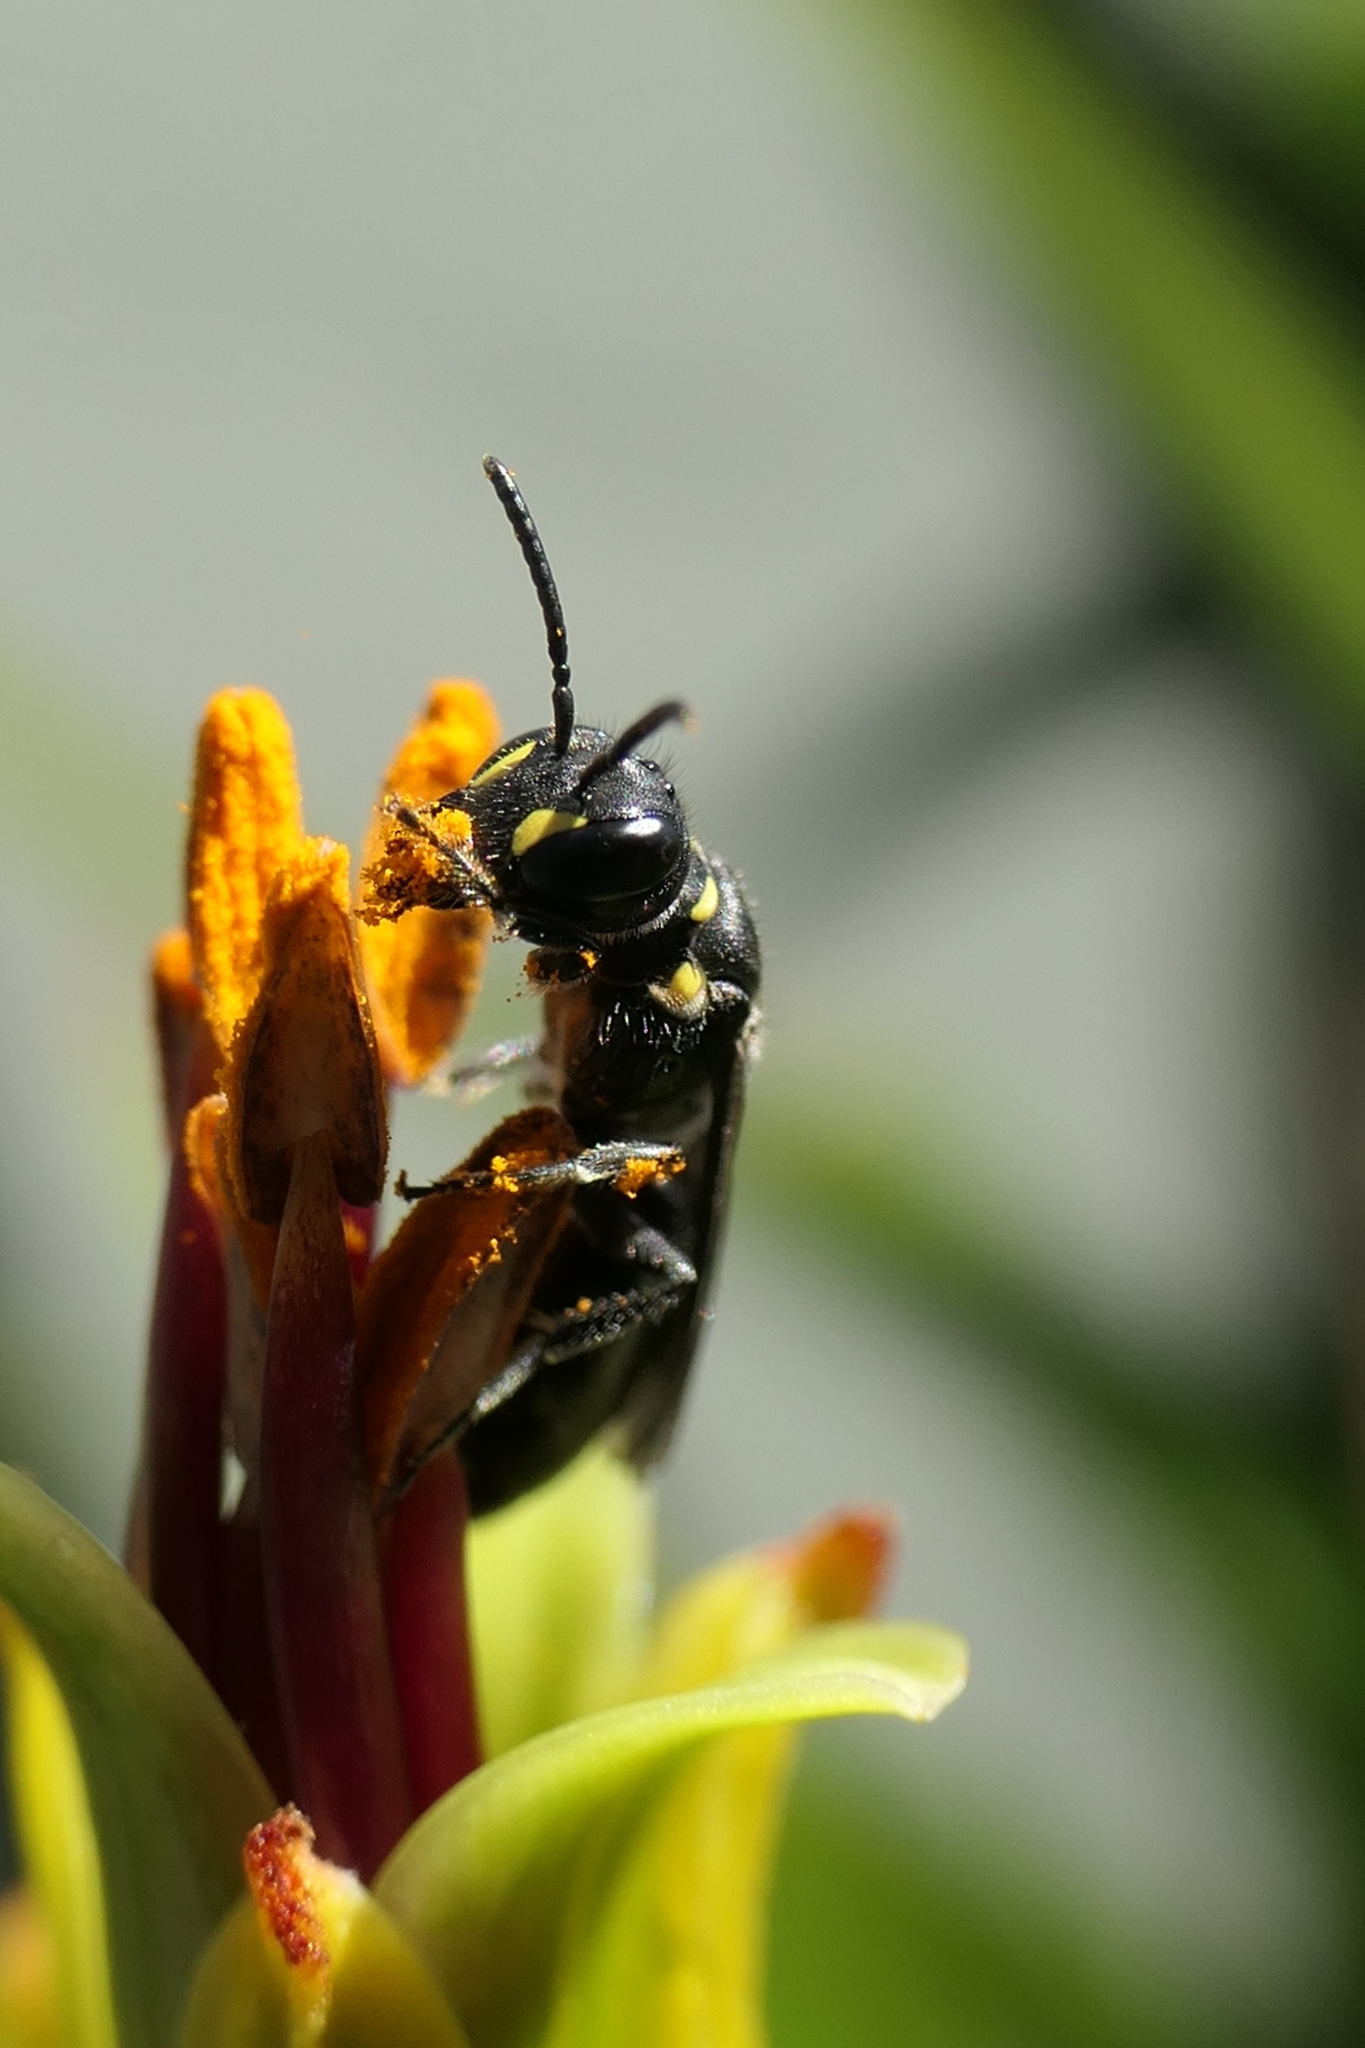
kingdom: Animalia
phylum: Arthropoda
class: Insecta
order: Hymenoptera
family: Colletidae
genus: Hylaeus
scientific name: Hylaeus relegatus
